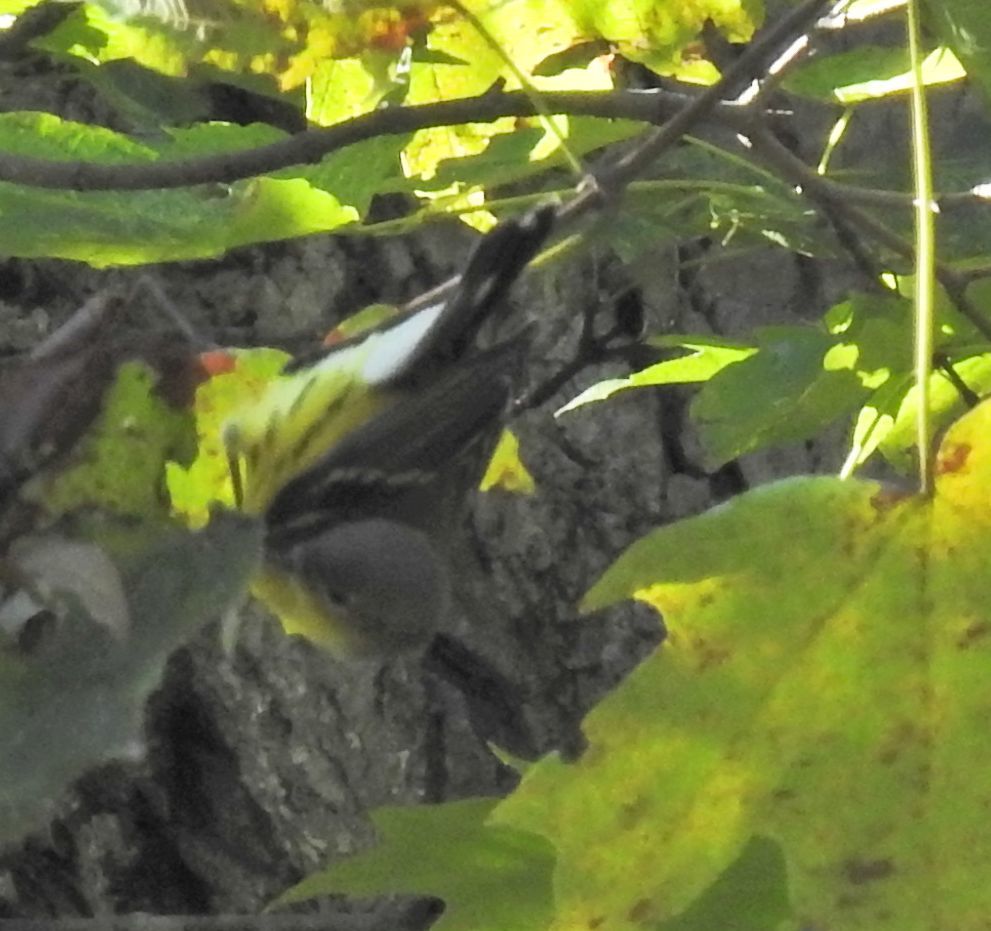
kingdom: Animalia
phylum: Chordata
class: Aves
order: Passeriformes
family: Parulidae
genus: Setophaga
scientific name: Setophaga magnolia
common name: Magnolia warbler
